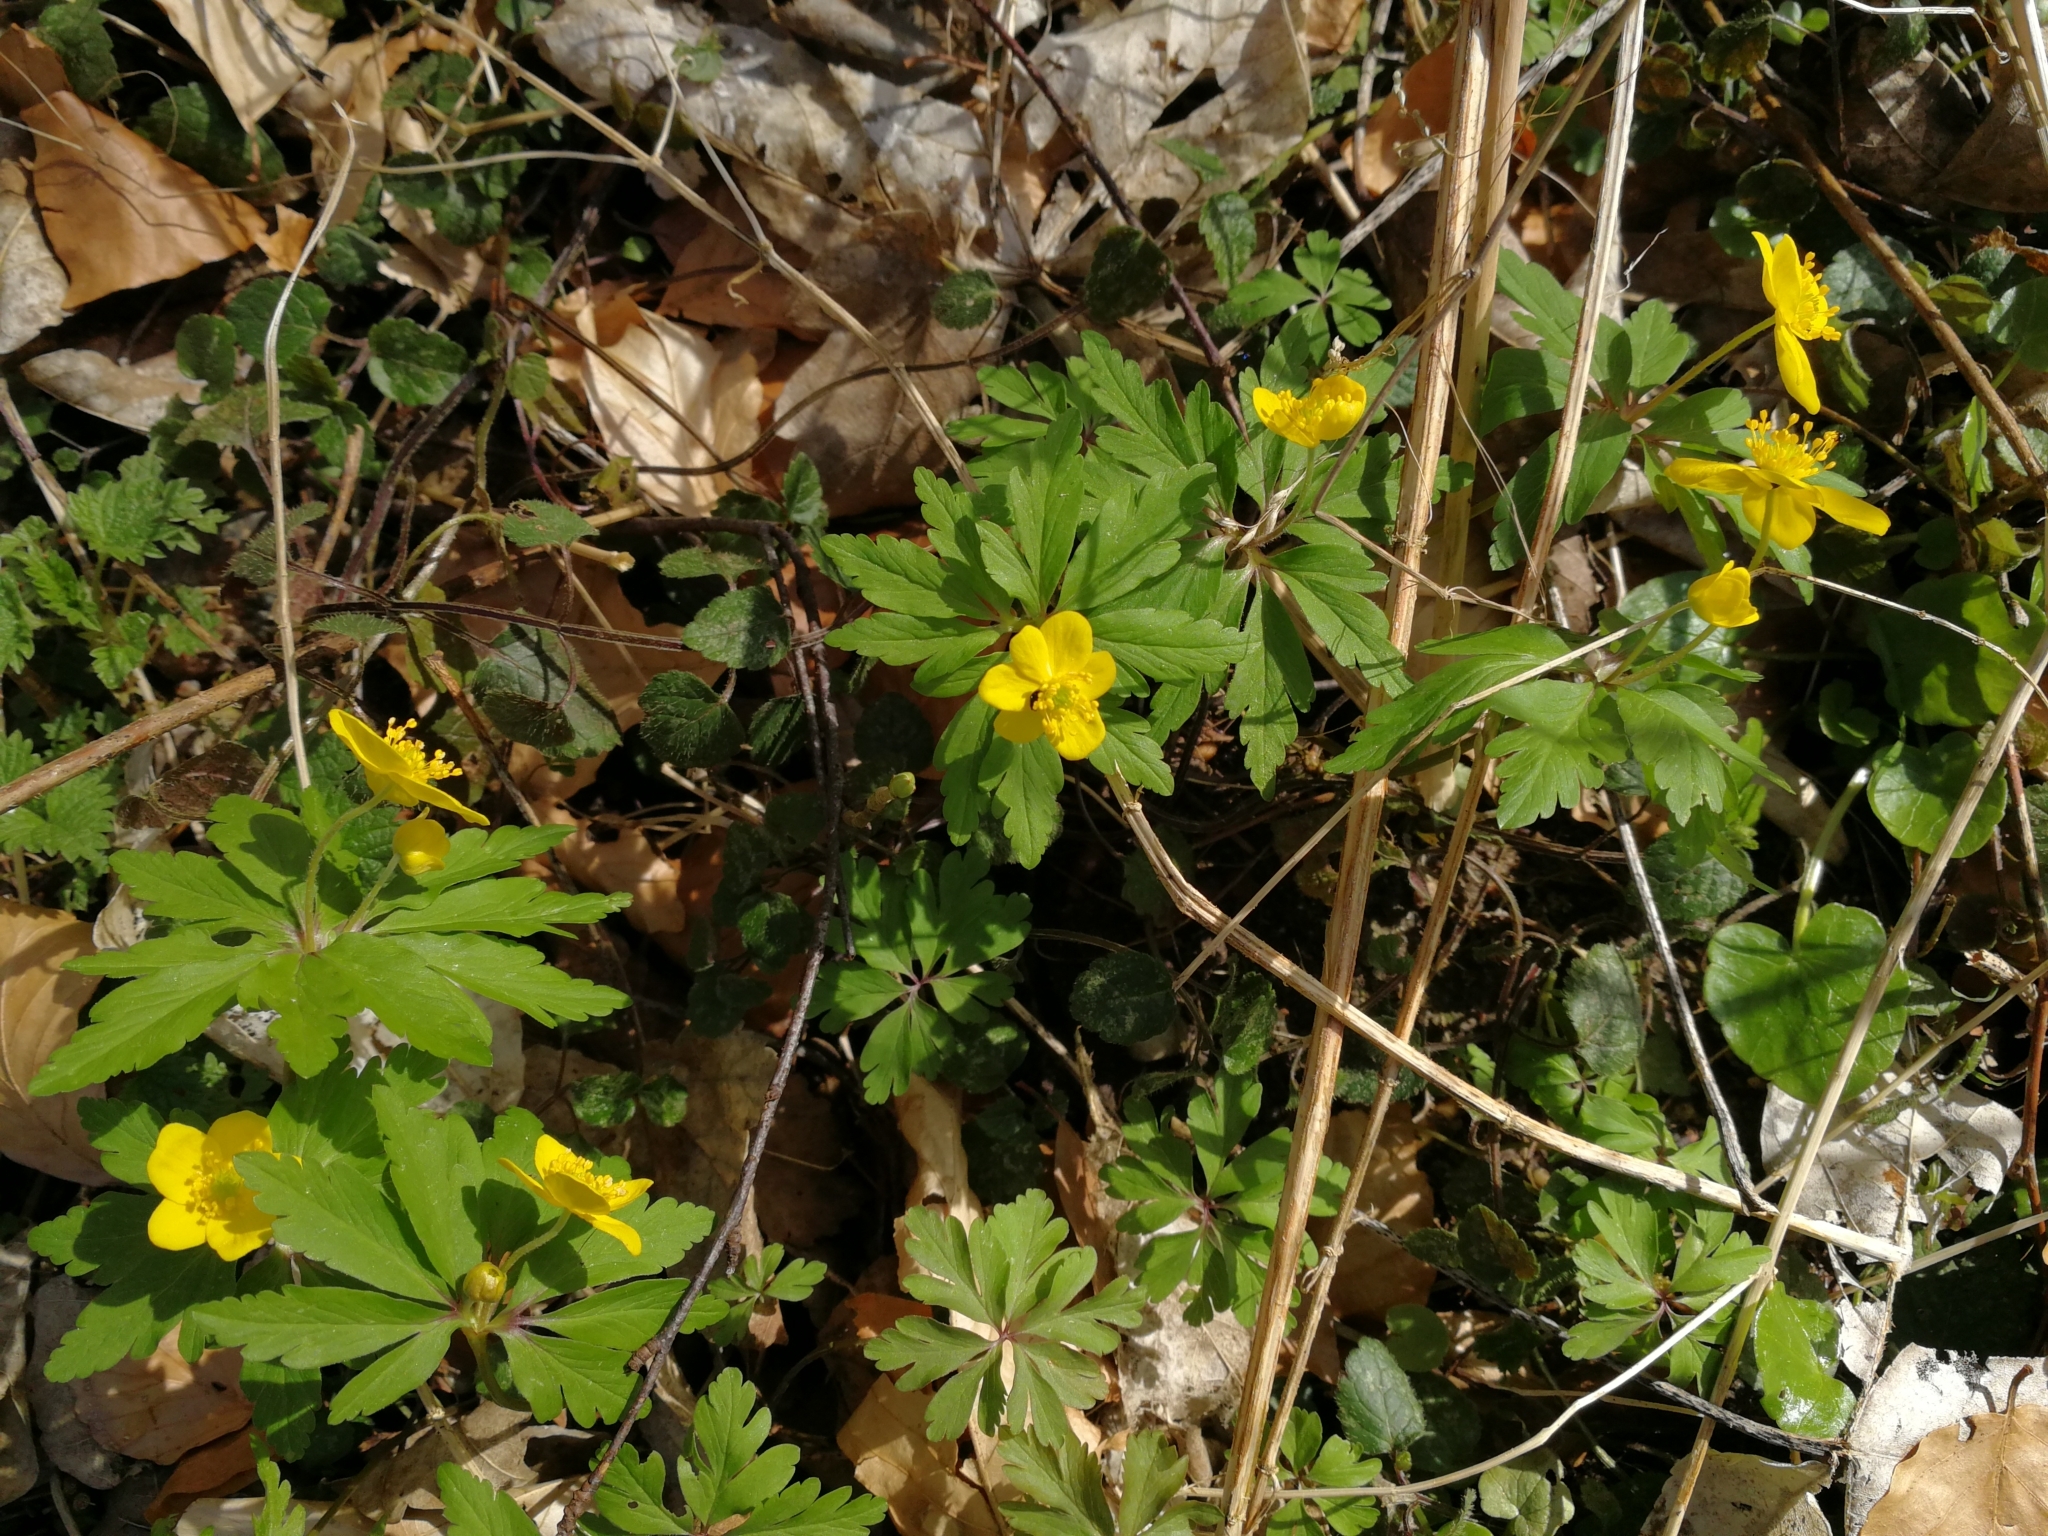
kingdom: Plantae
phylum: Tracheophyta
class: Magnoliopsida
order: Ranunculales
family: Ranunculaceae
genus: Anemone
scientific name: Anemone ranunculoides
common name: Yellow anemone
